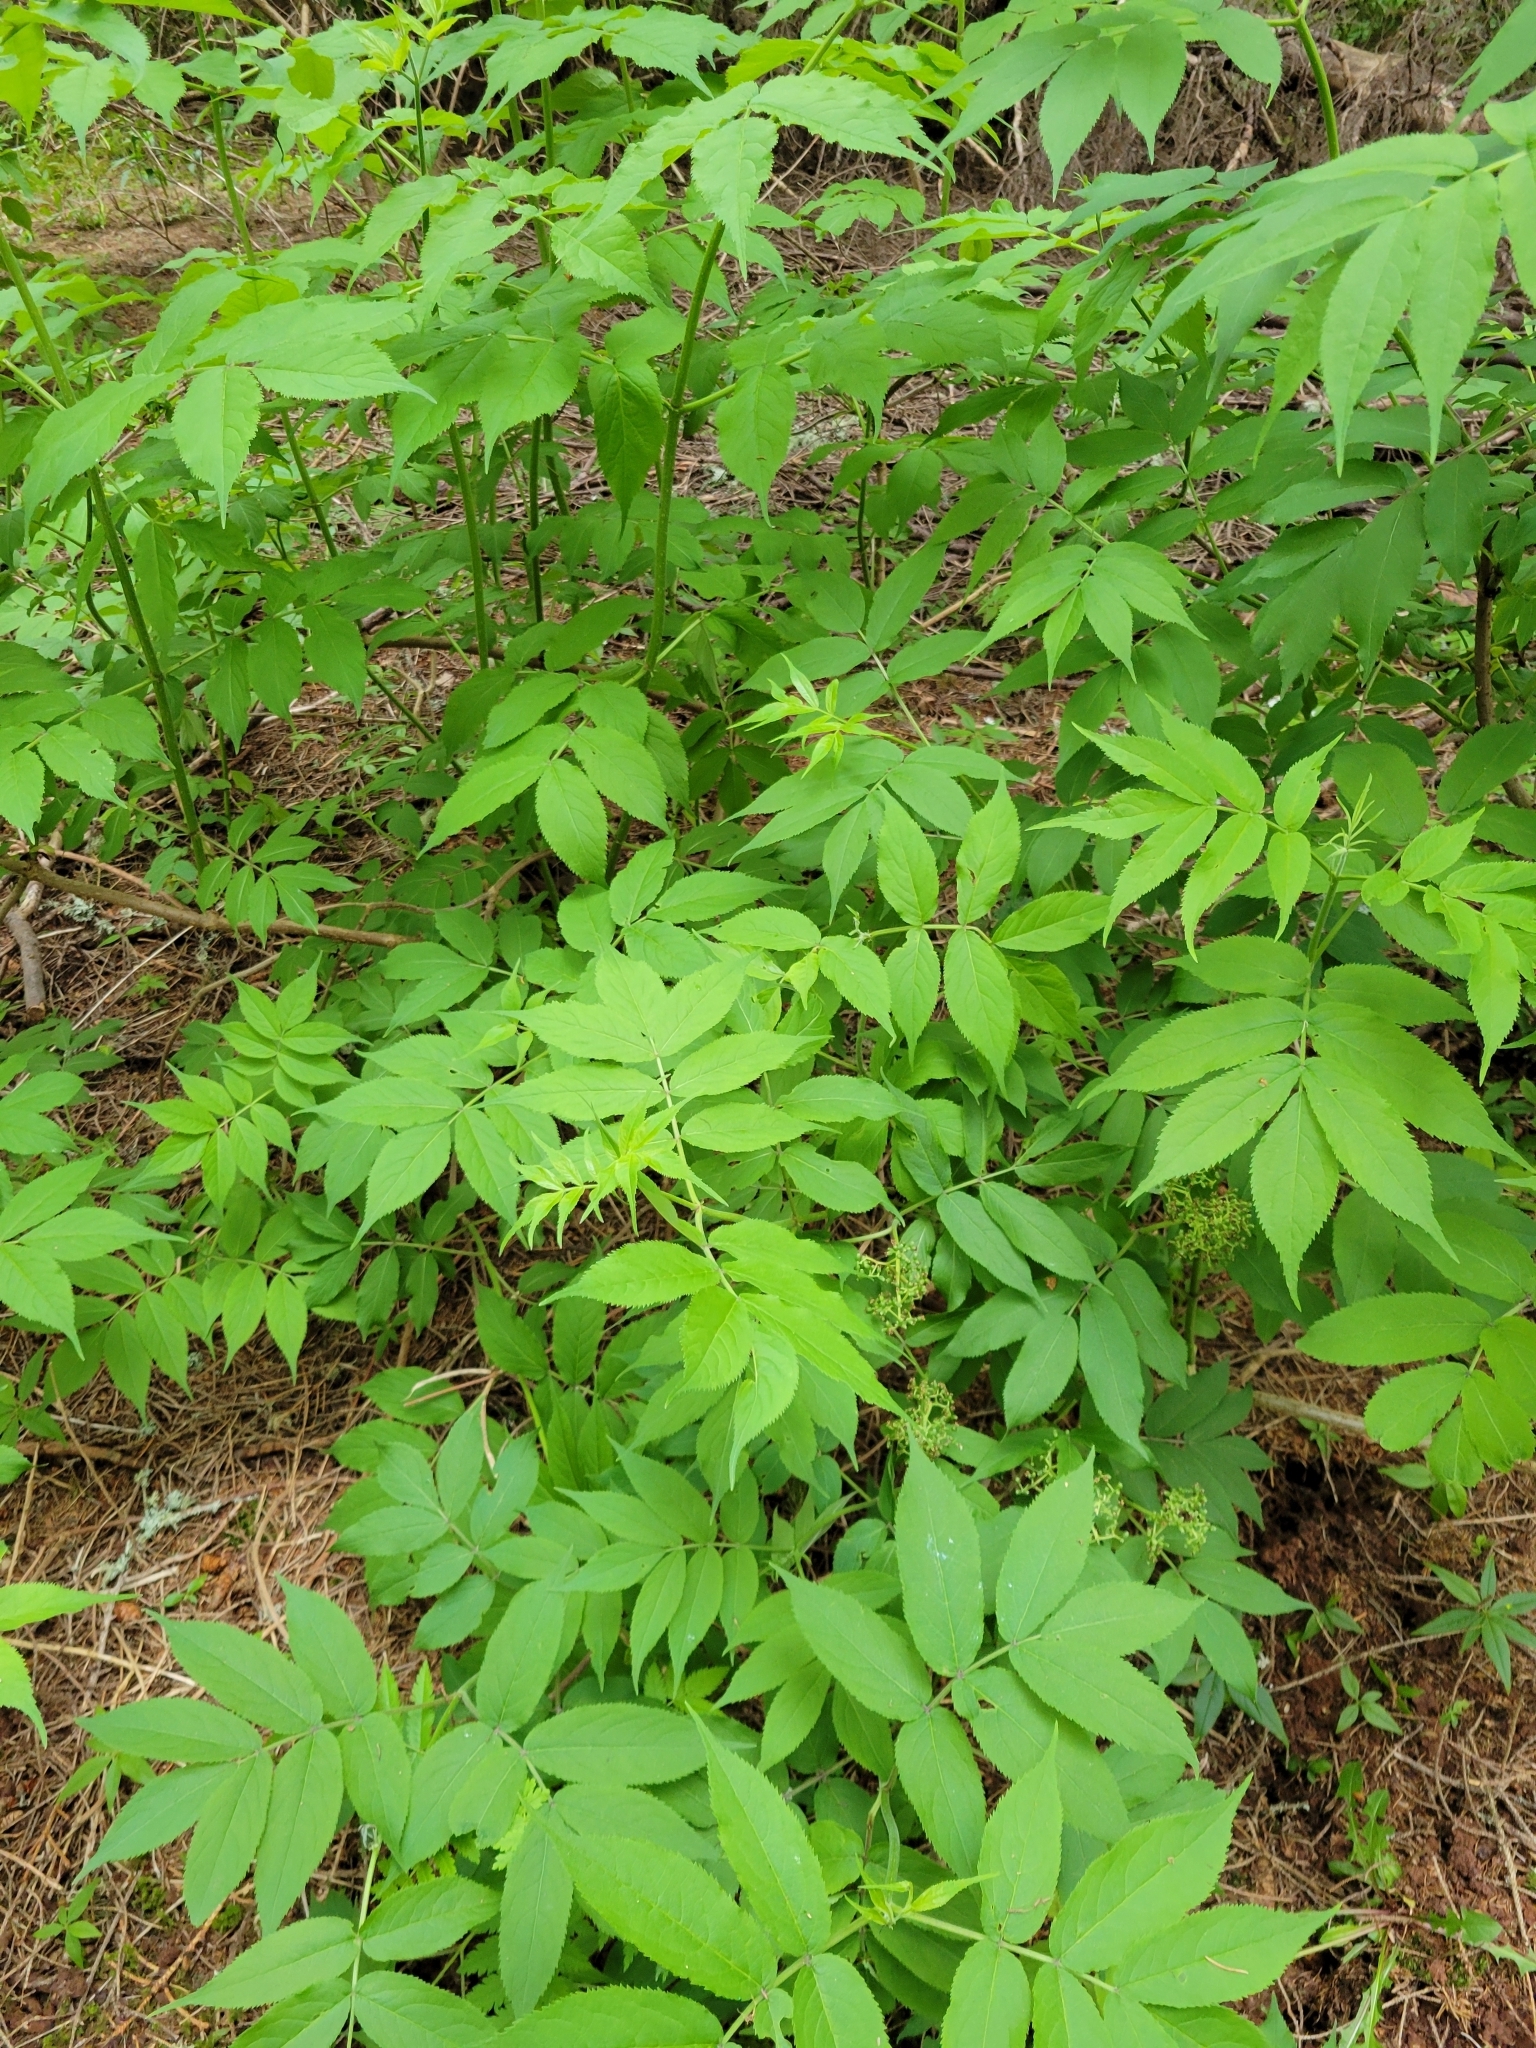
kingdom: Plantae
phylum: Tracheophyta
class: Magnoliopsida
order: Dipsacales
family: Viburnaceae
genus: Sambucus
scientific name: Sambucus racemosa
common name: Red-berried elder
